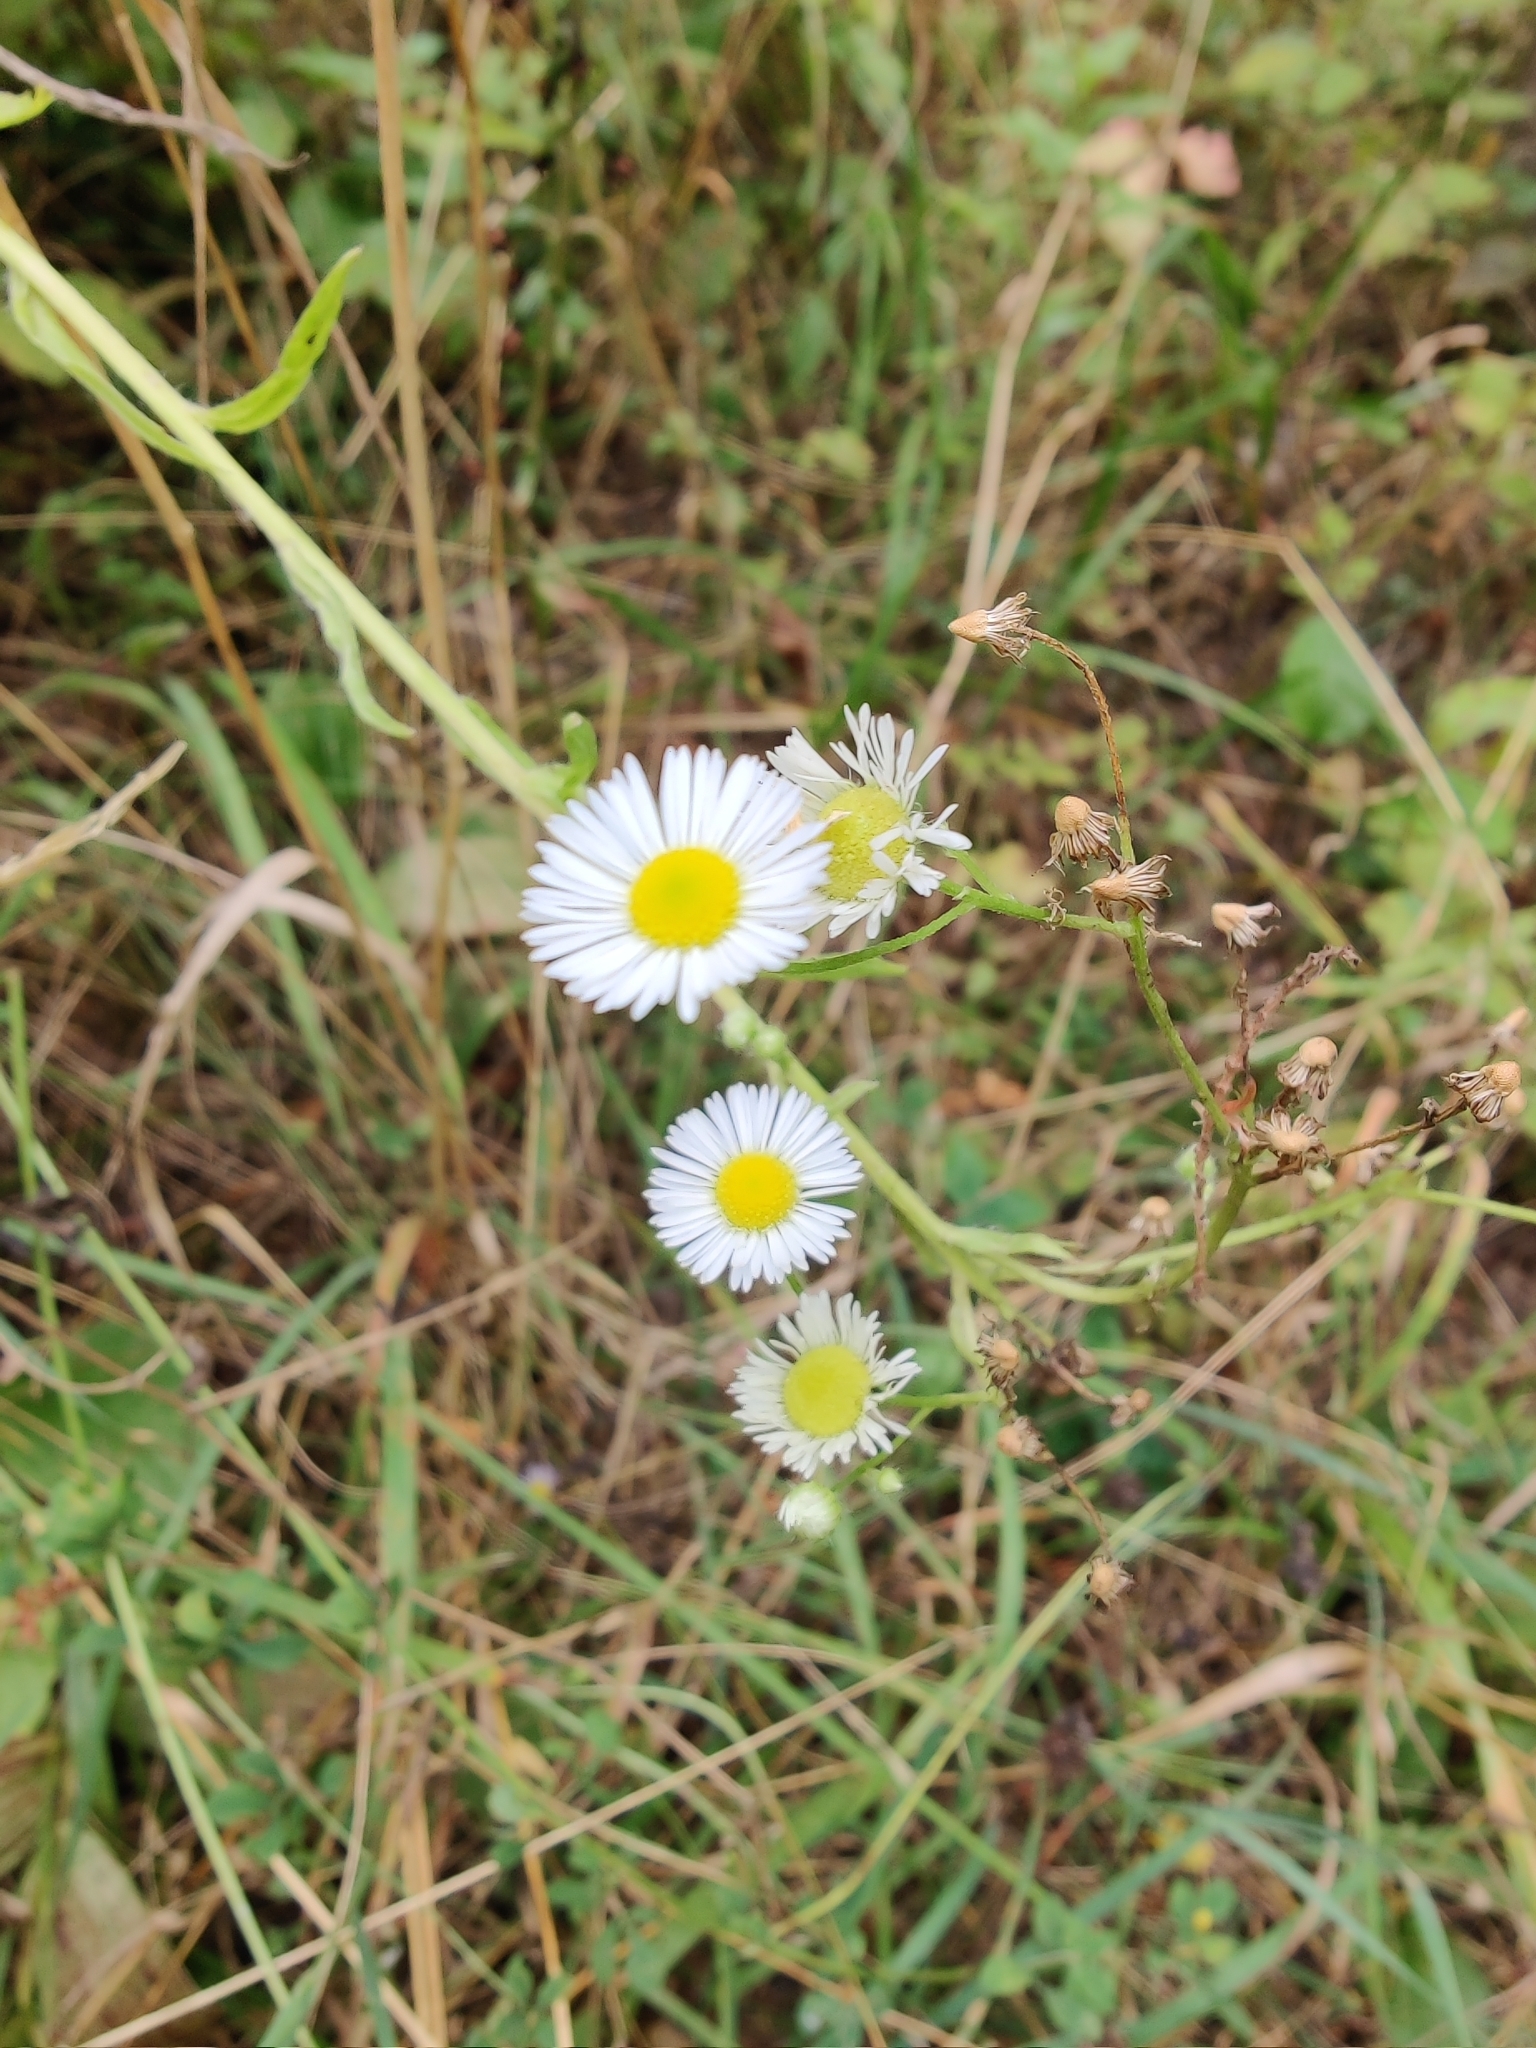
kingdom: Plantae
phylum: Tracheophyta
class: Magnoliopsida
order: Asterales
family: Asteraceae
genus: Erigeron
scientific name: Erigeron annuus
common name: Tall fleabane
